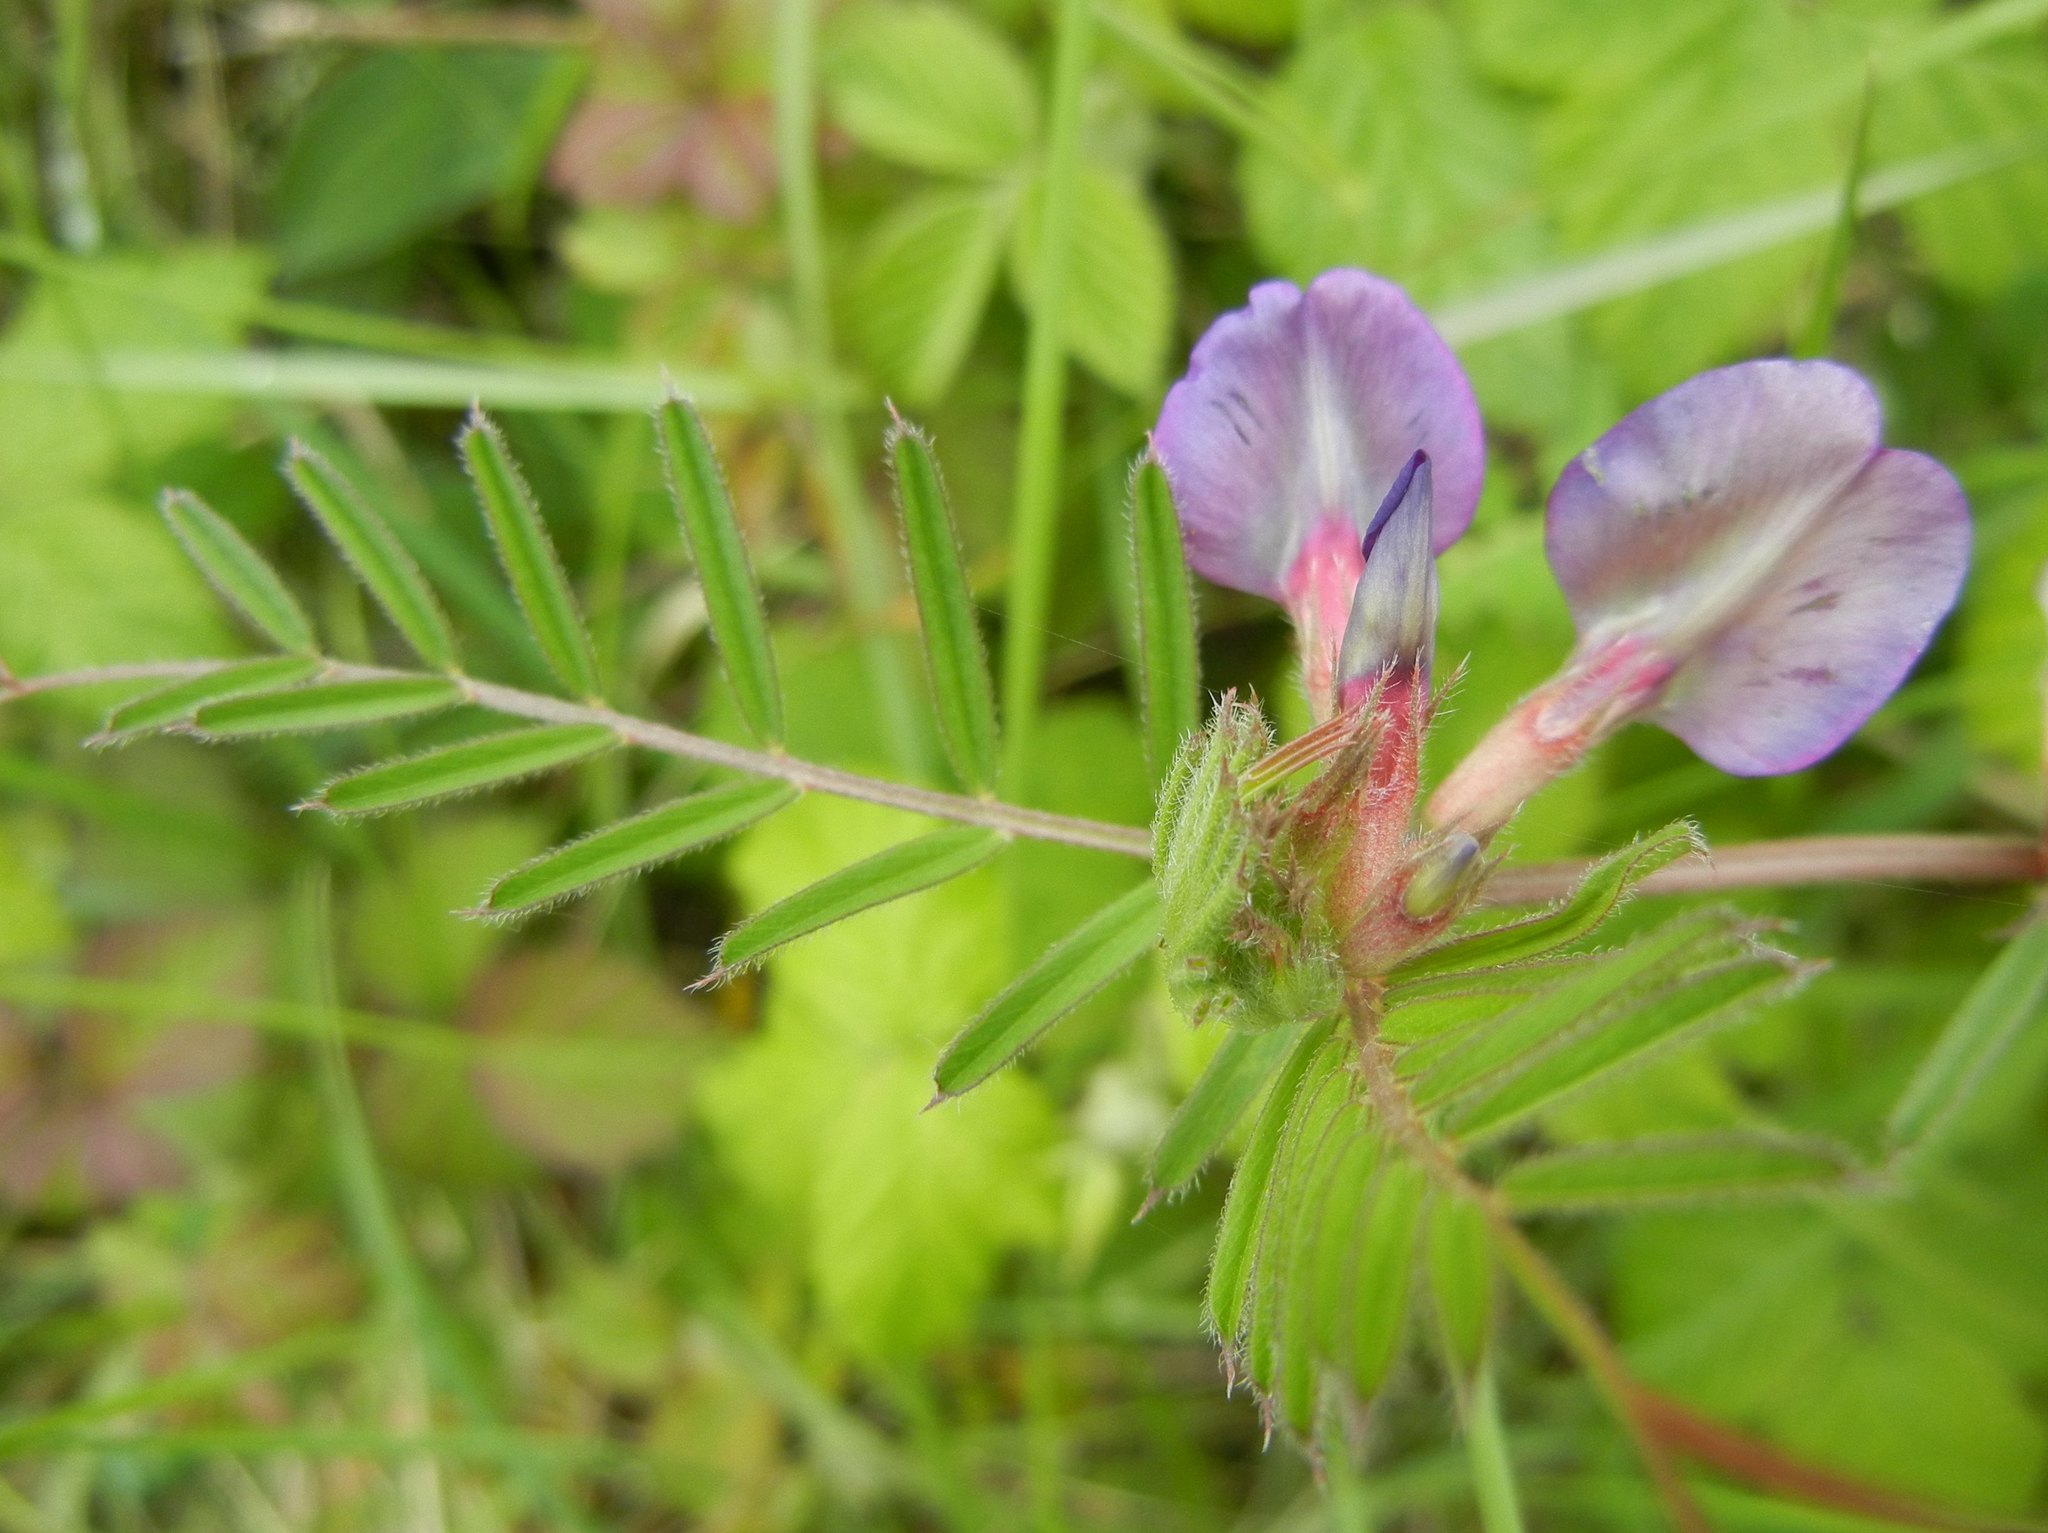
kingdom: Plantae
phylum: Tracheophyta
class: Magnoliopsida
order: Fabales
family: Fabaceae
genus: Vicia
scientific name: Vicia sativa
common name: Garden vetch
